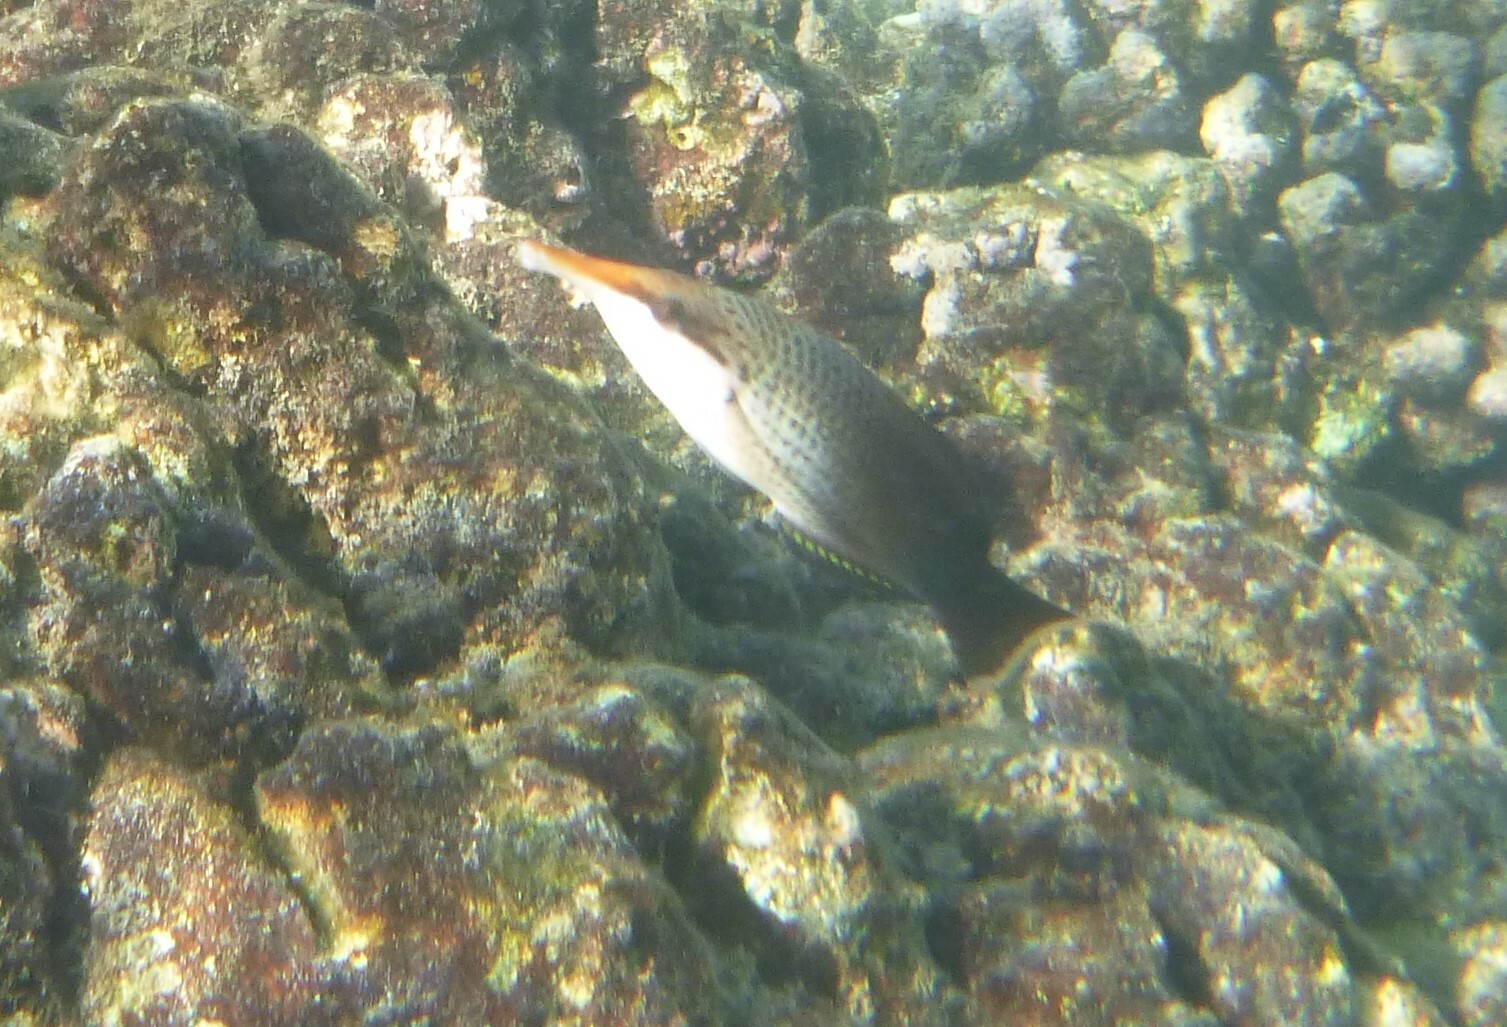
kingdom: Animalia
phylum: Chordata
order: Perciformes
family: Labridae
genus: Gomphosus
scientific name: Gomphosus varius
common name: Bird wrasse
